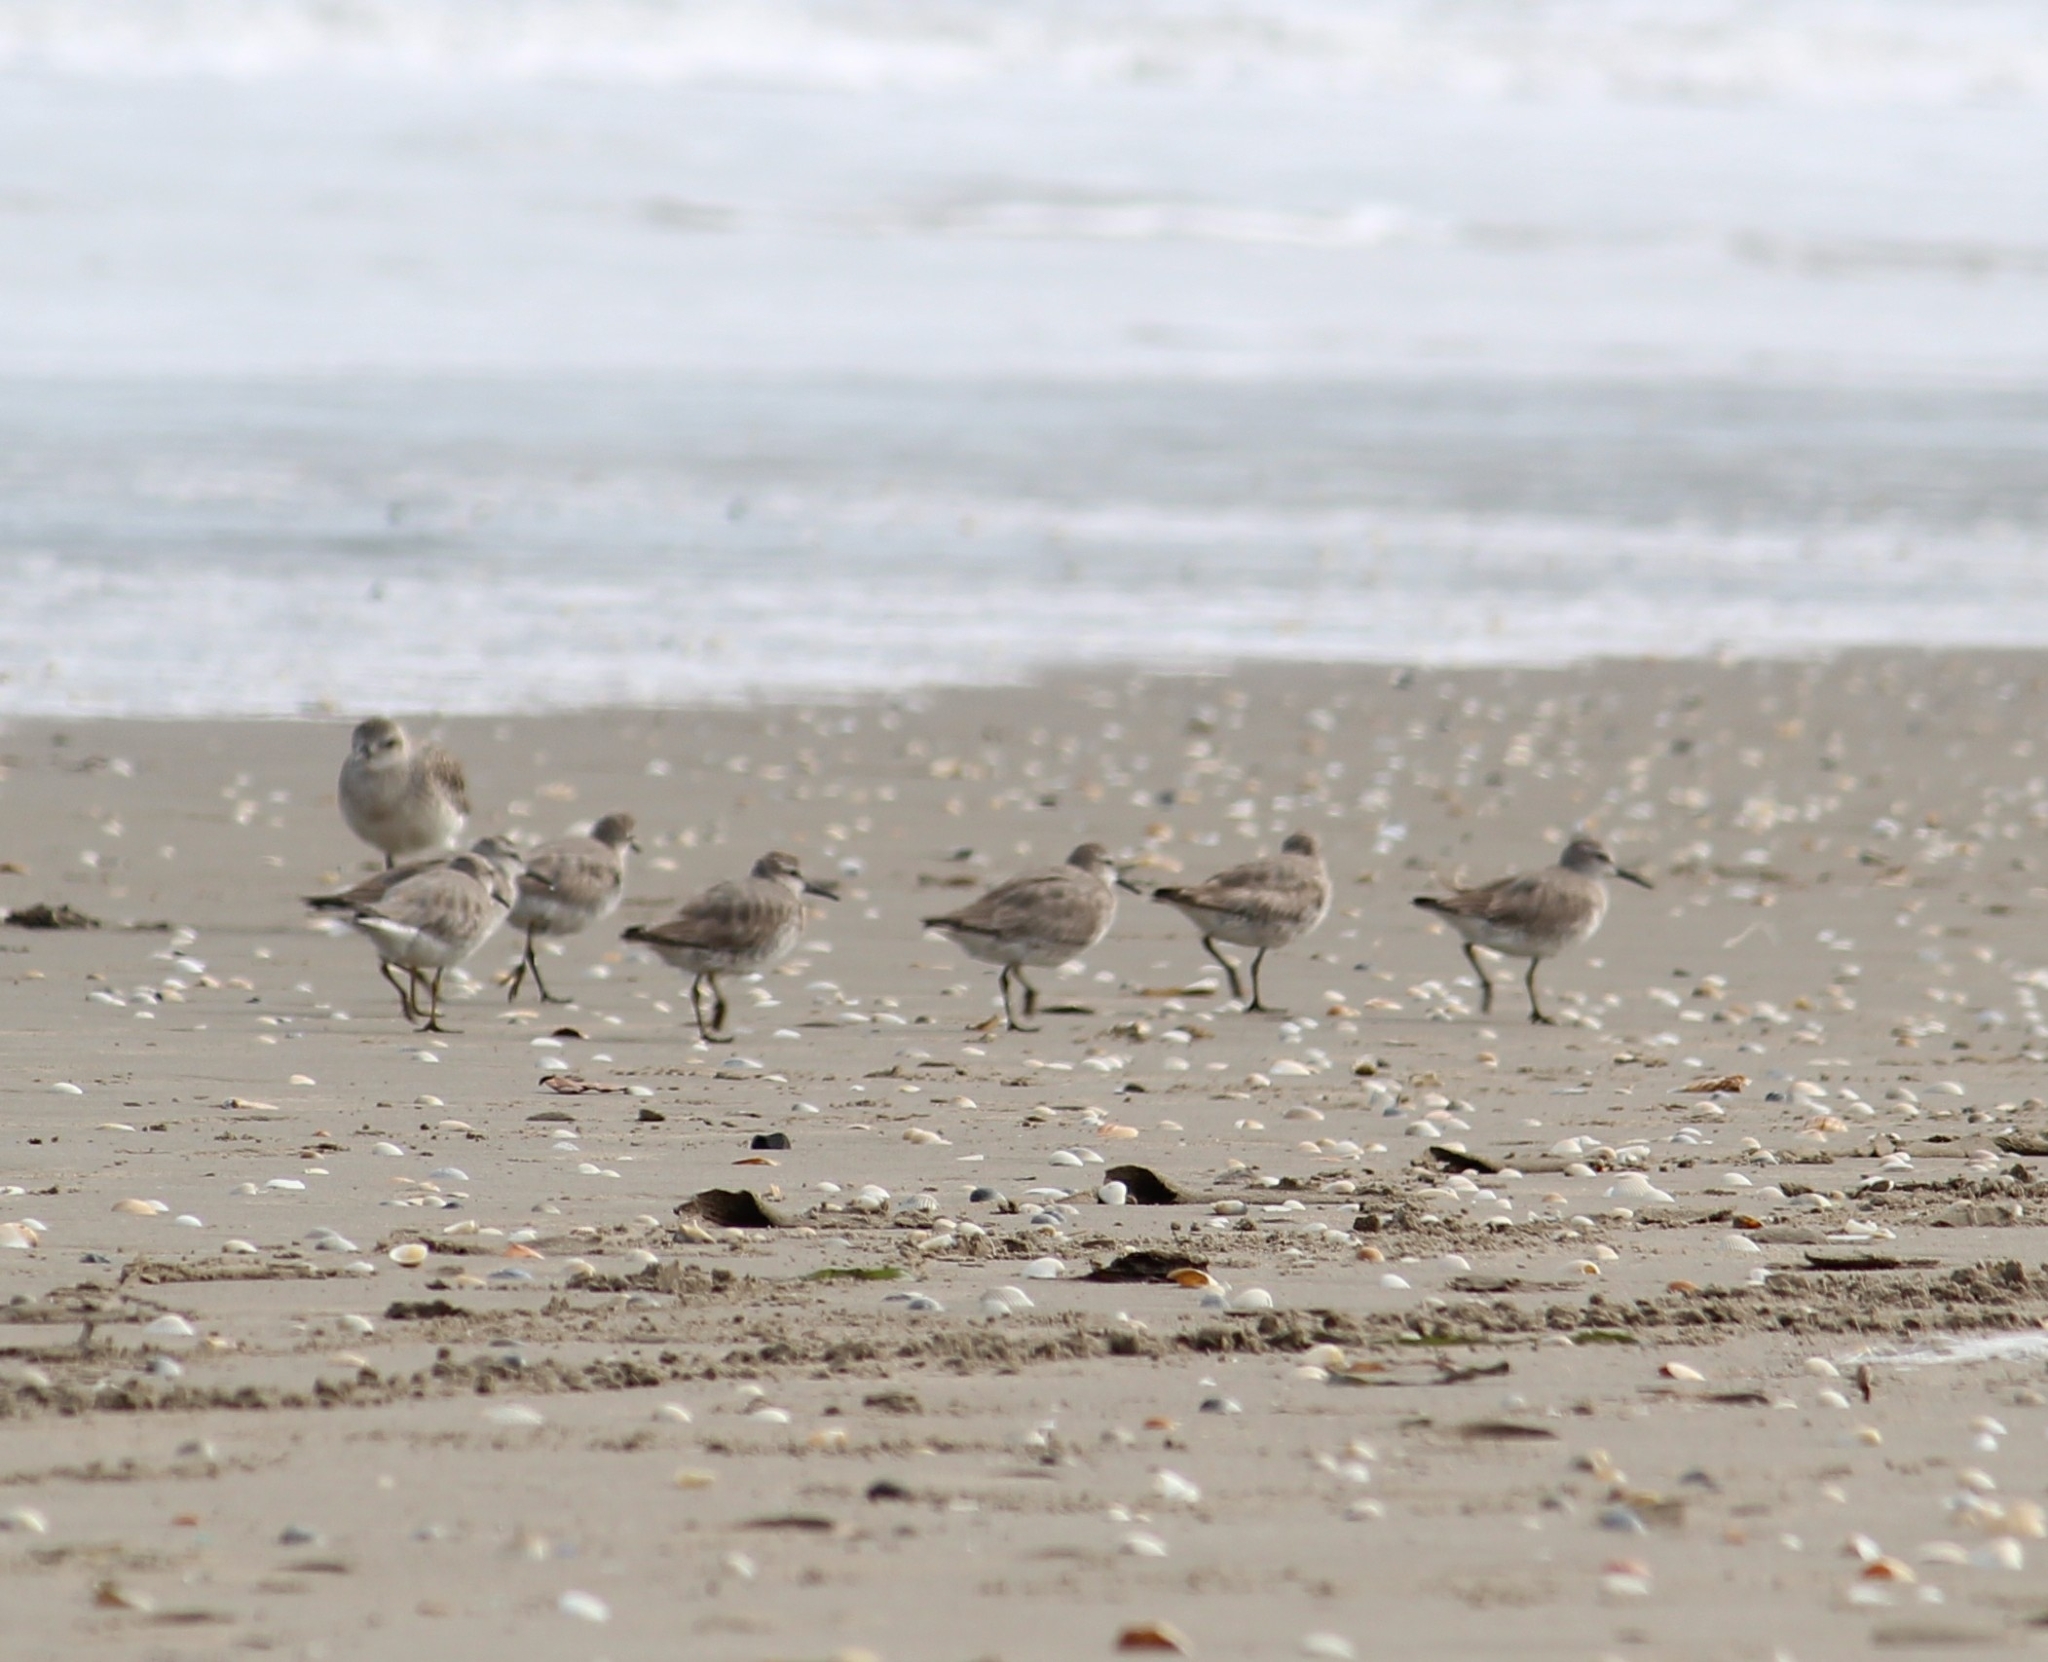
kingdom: Animalia
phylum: Chordata
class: Aves
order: Charadriiformes
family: Scolopacidae
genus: Calidris
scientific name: Calidris canutus
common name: Red knot
